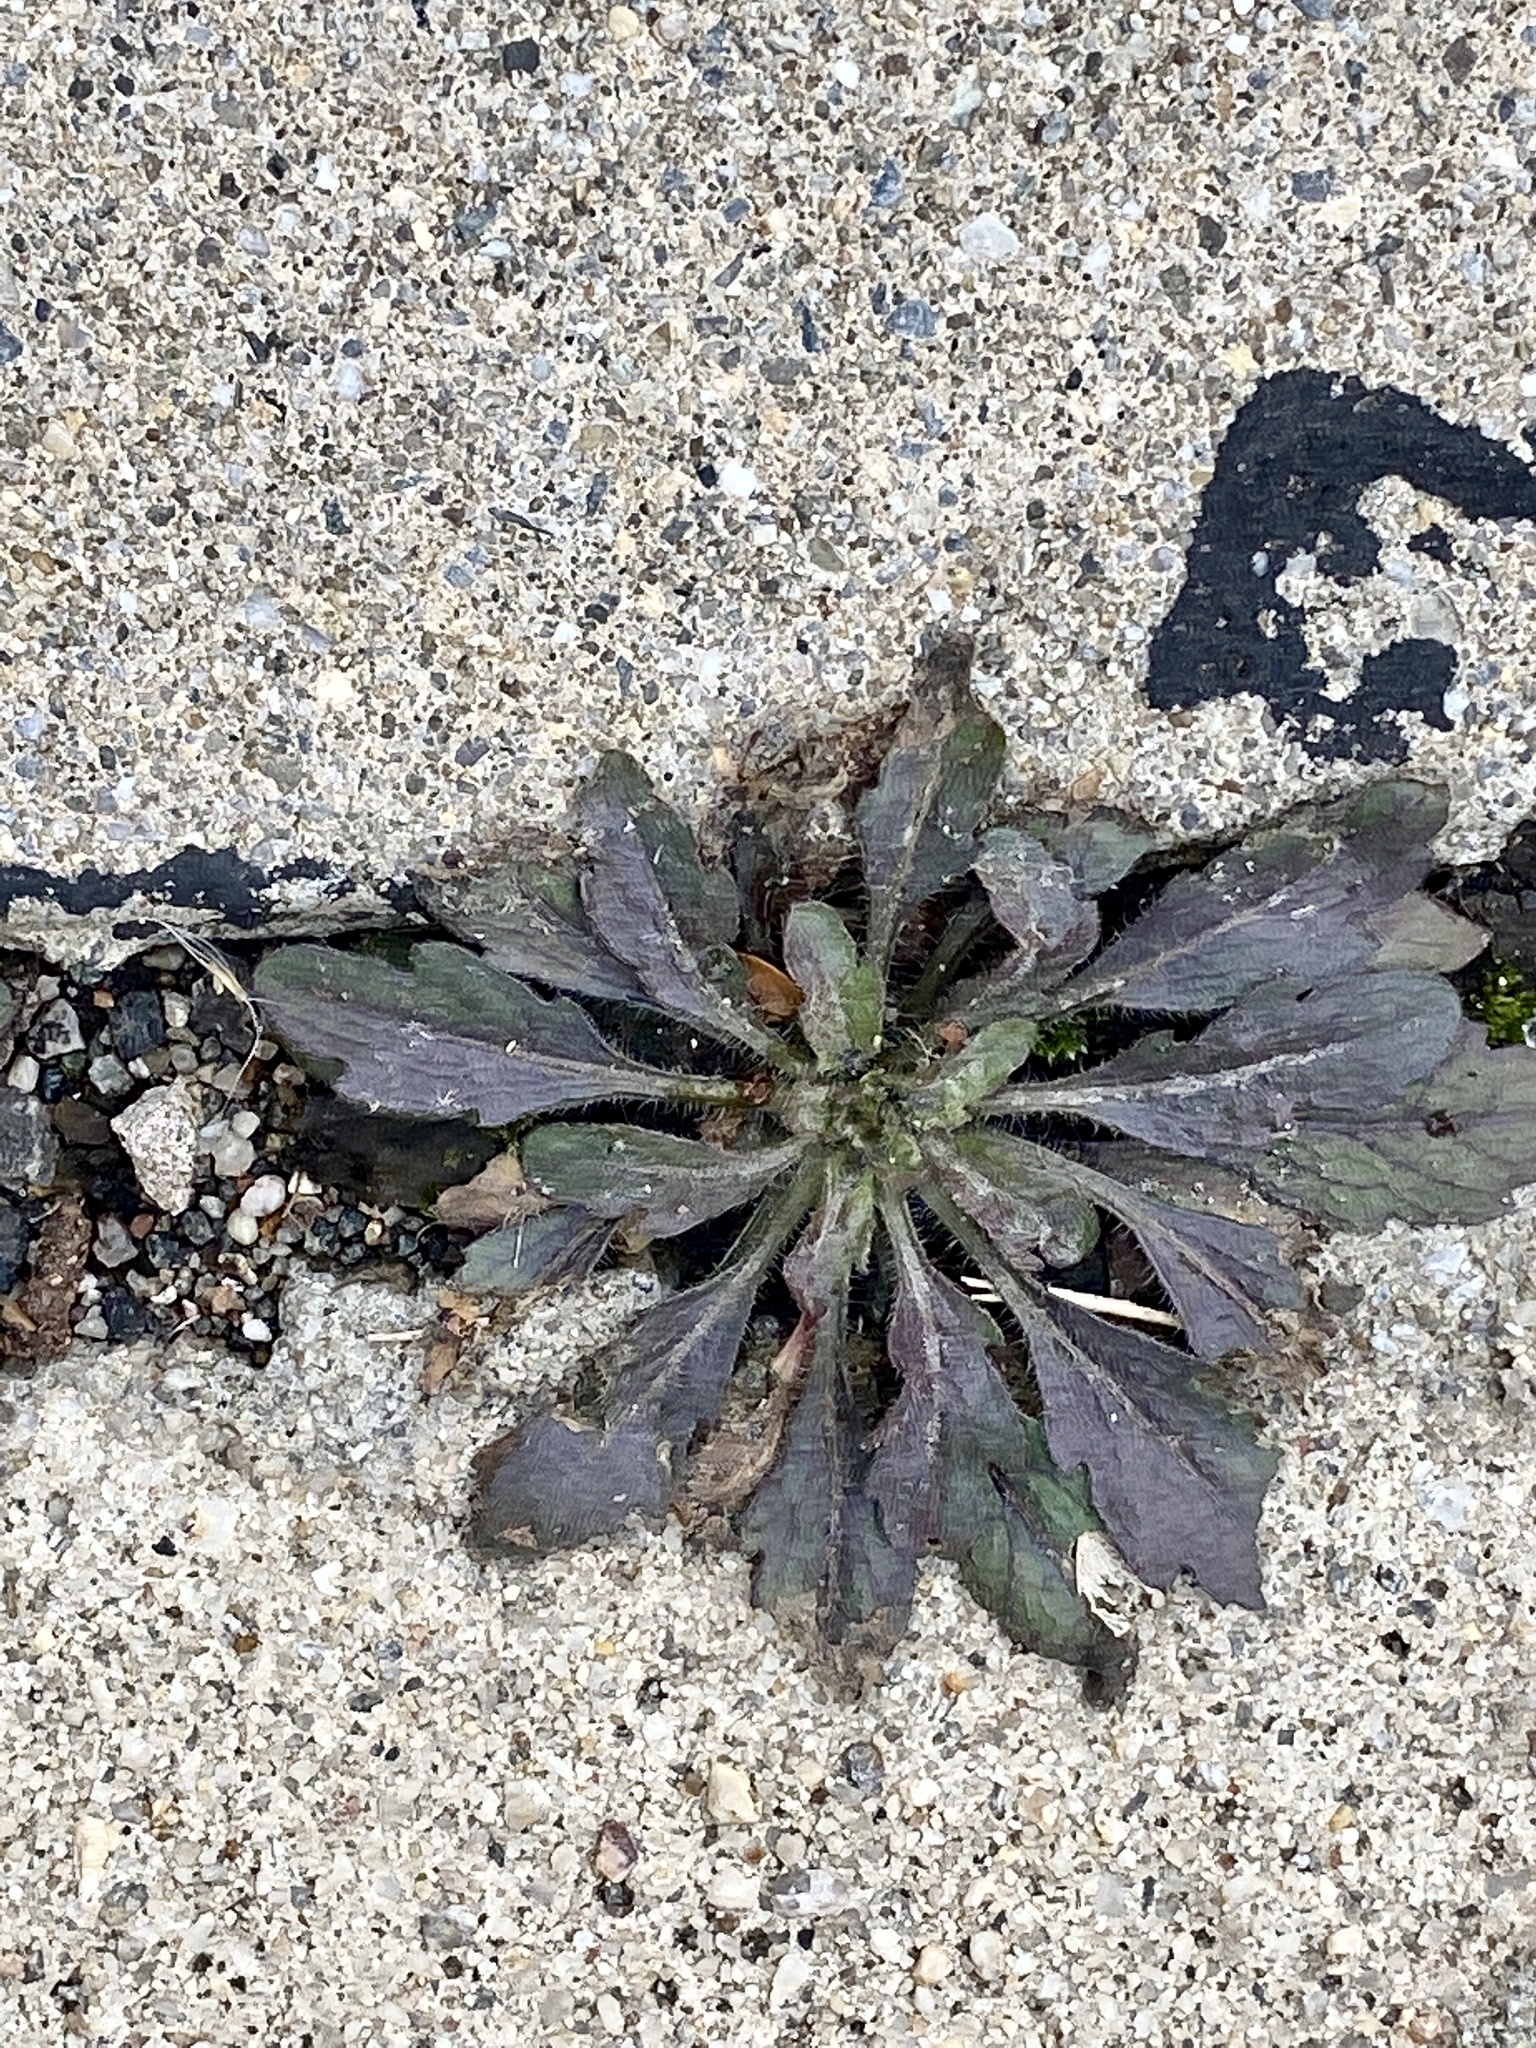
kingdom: Plantae
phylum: Tracheophyta
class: Magnoliopsida
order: Asterales
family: Asteraceae
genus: Erigeron
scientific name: Erigeron canadensis
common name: Canadian fleabane
